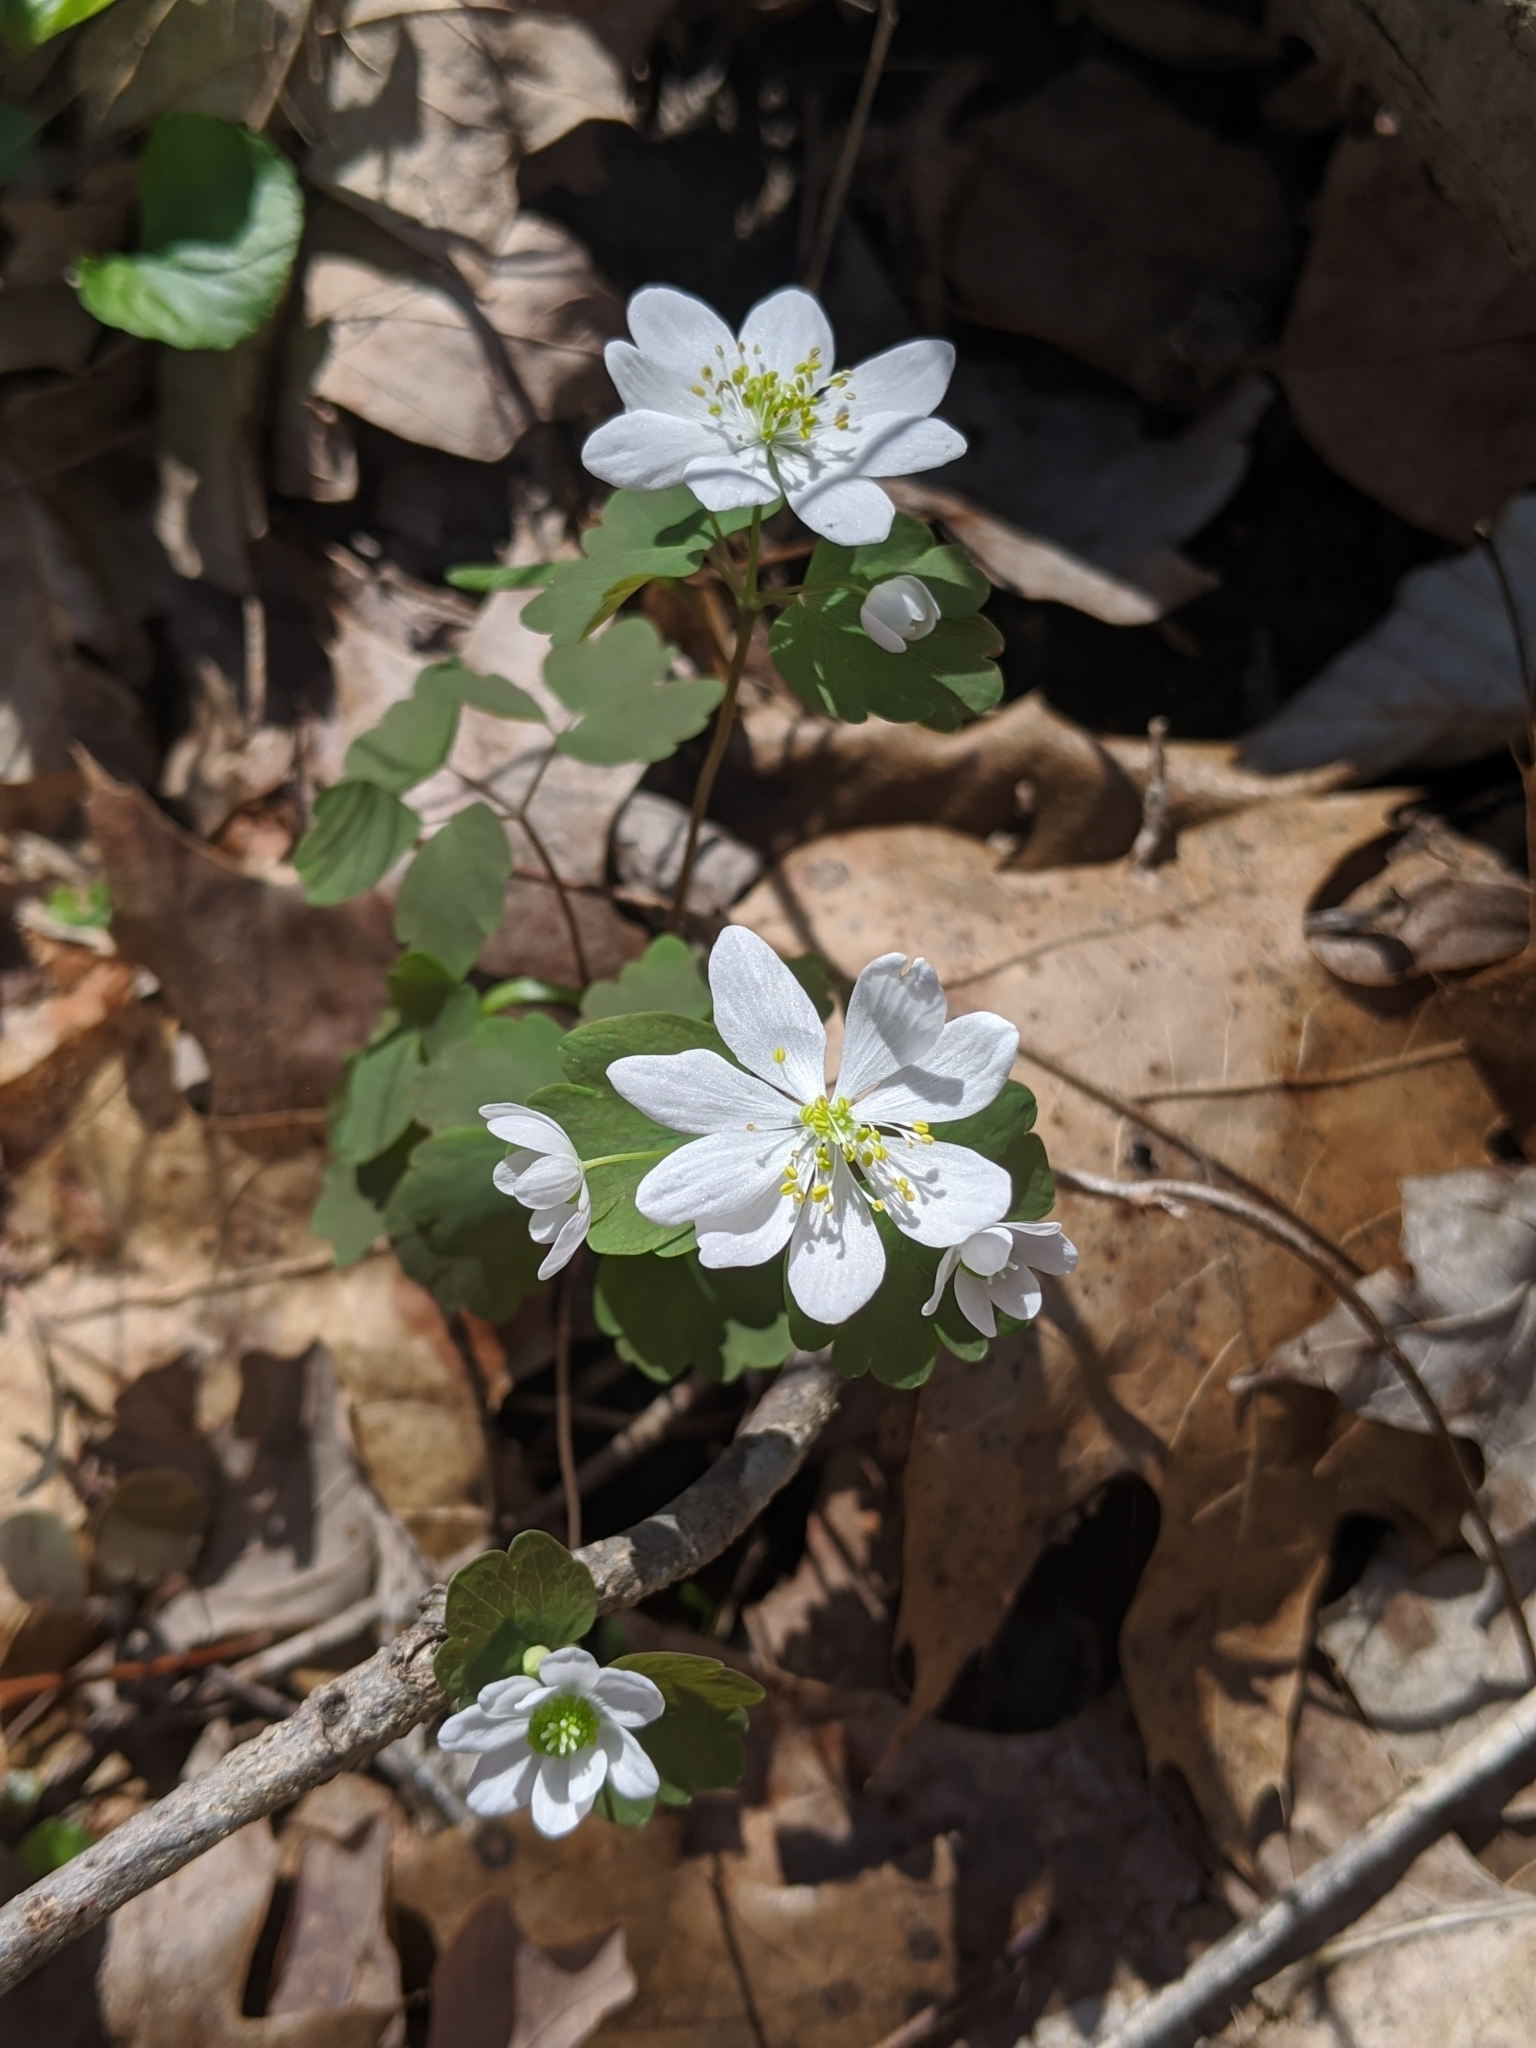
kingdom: Plantae
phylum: Tracheophyta
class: Magnoliopsida
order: Ranunculales
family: Ranunculaceae
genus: Thalictrum
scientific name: Thalictrum thalictroides
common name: Rue-anemone
